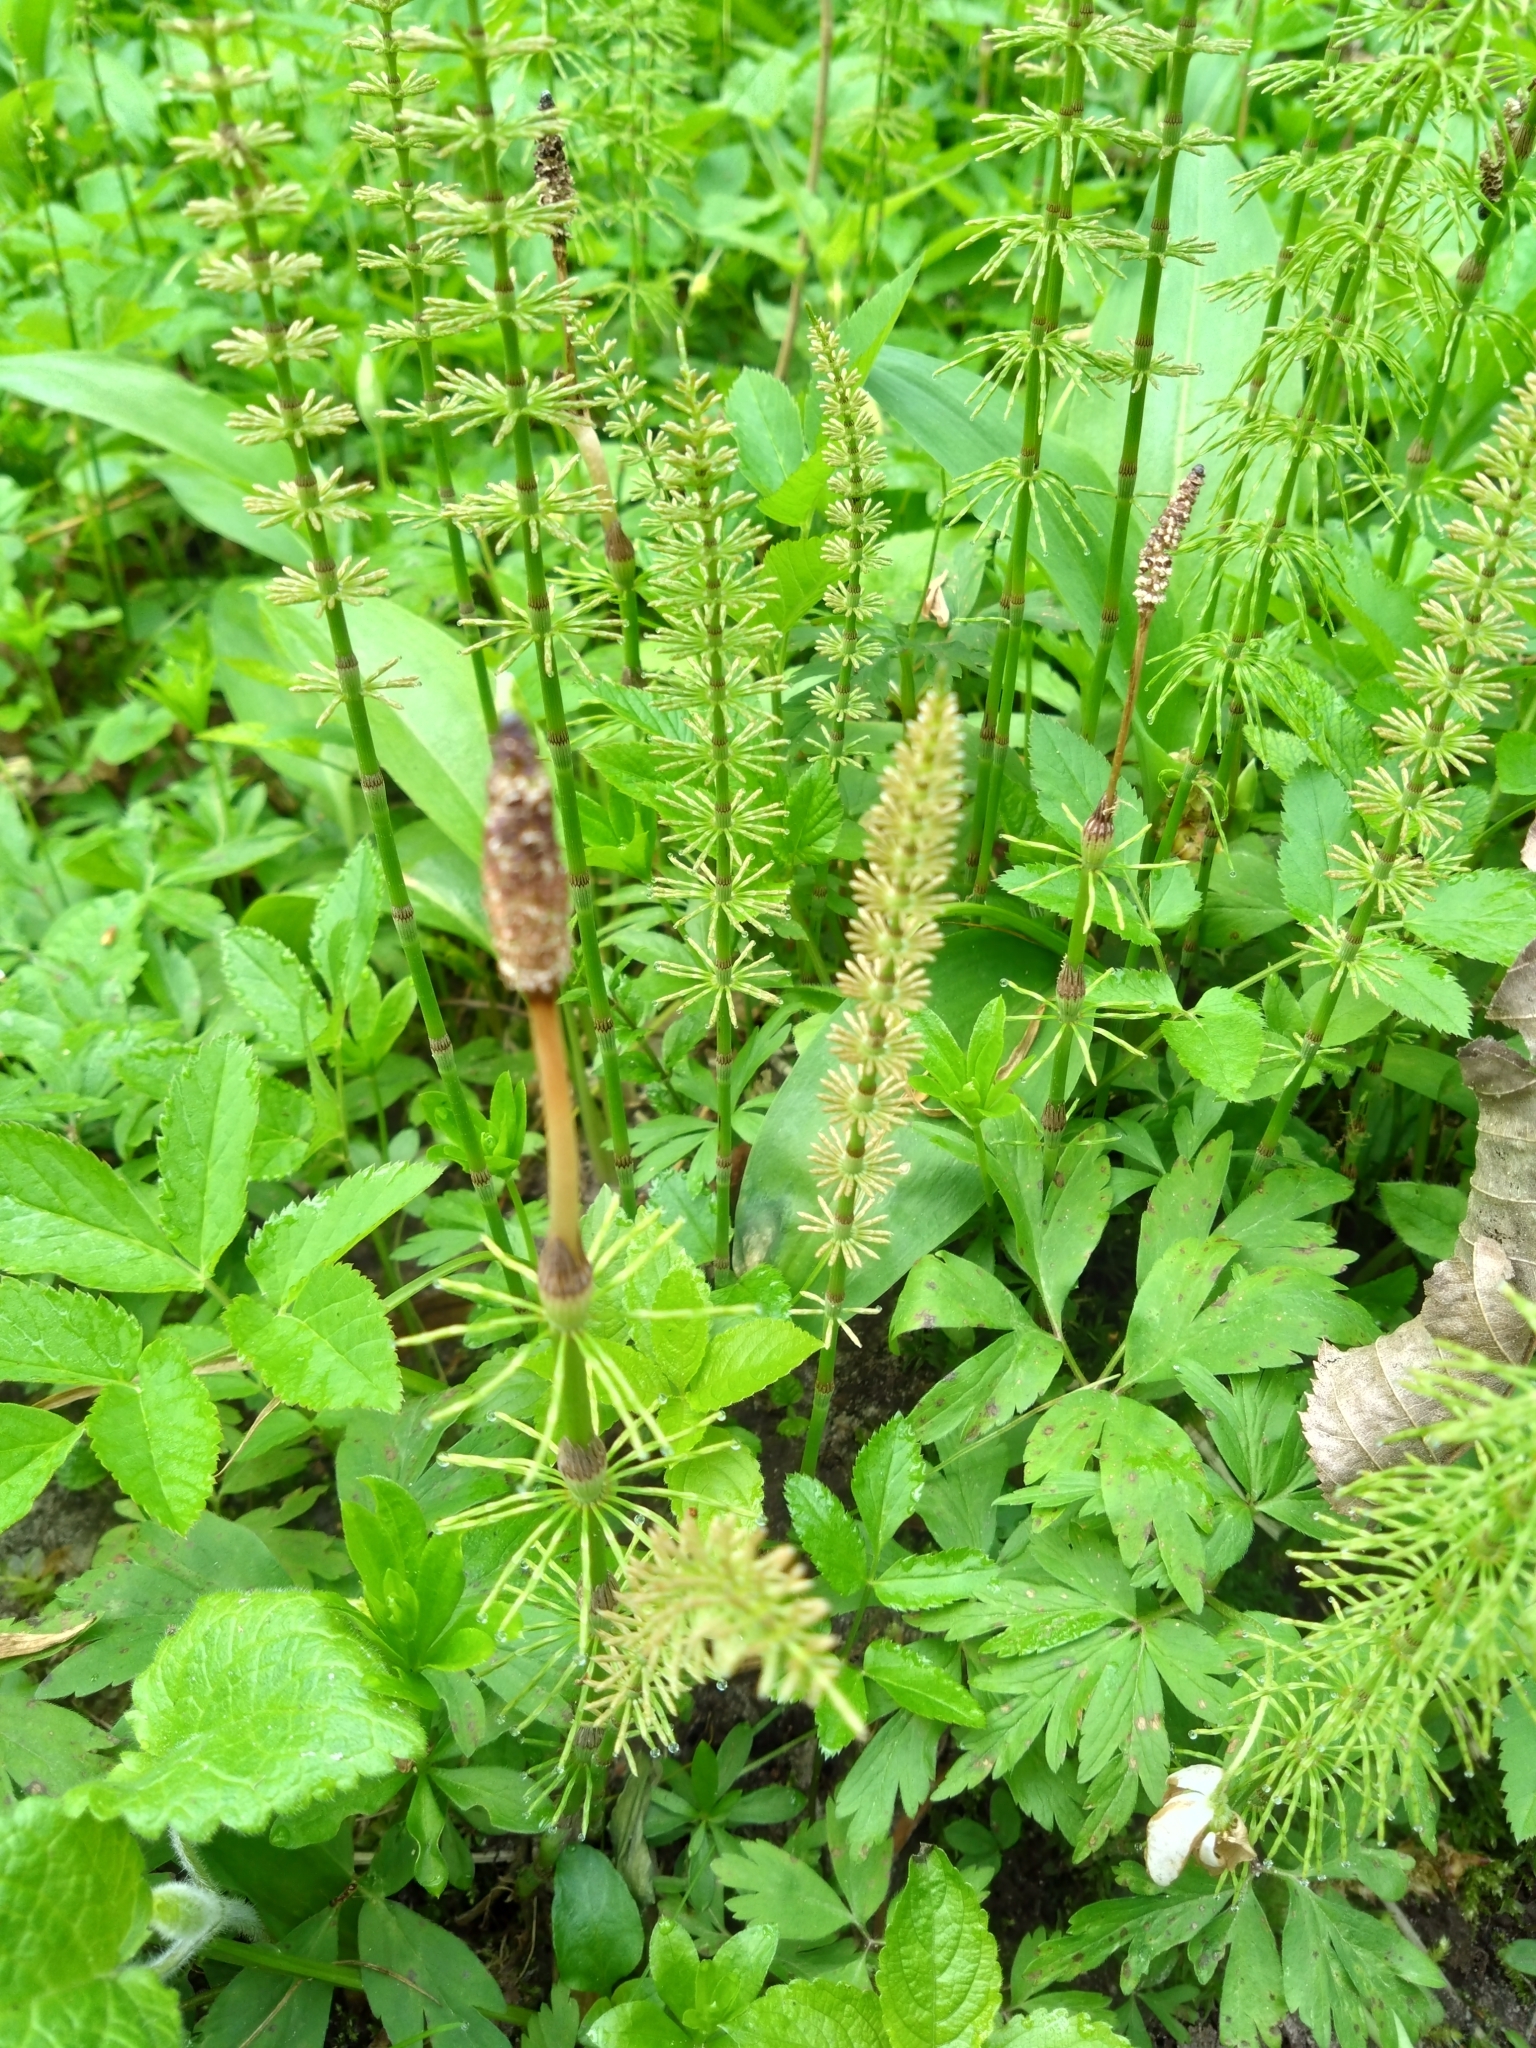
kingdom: Plantae
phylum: Tracheophyta
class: Polypodiopsida
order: Equisetales
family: Equisetaceae
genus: Equisetum
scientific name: Equisetum sylvaticum
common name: Wood horsetail
